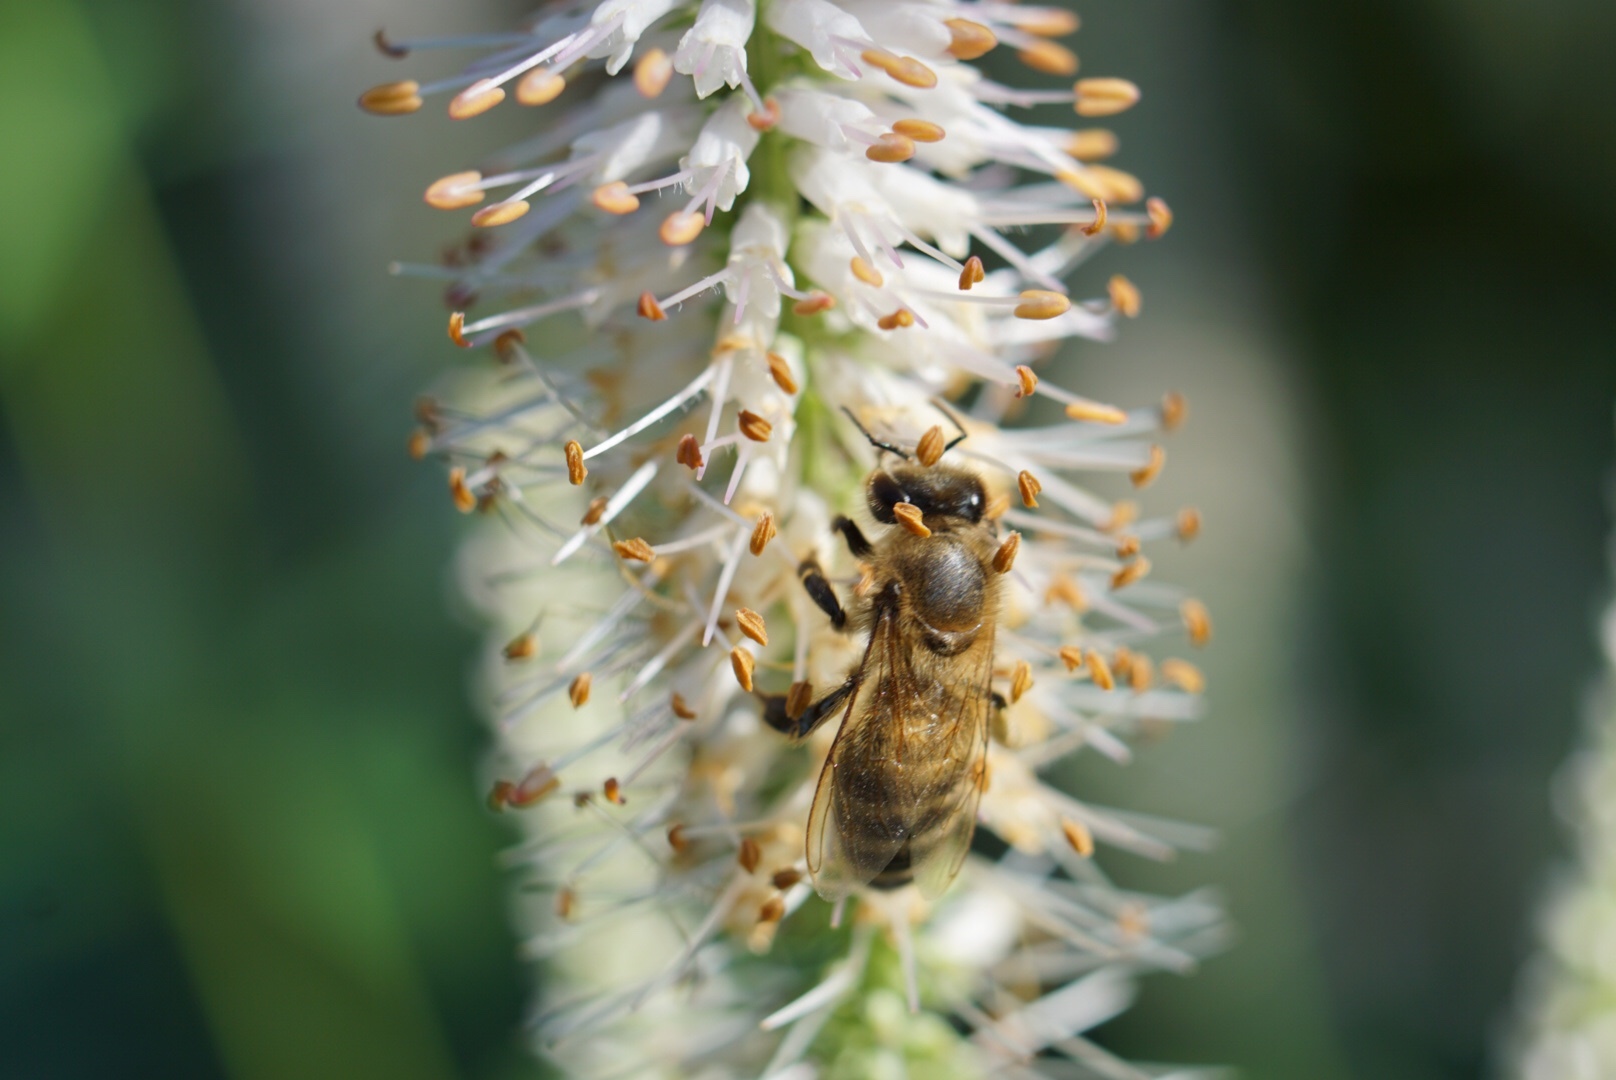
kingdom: Animalia
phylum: Arthropoda
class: Insecta
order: Hymenoptera
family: Apidae
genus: Apis
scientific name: Apis mellifera
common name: Honey bee
